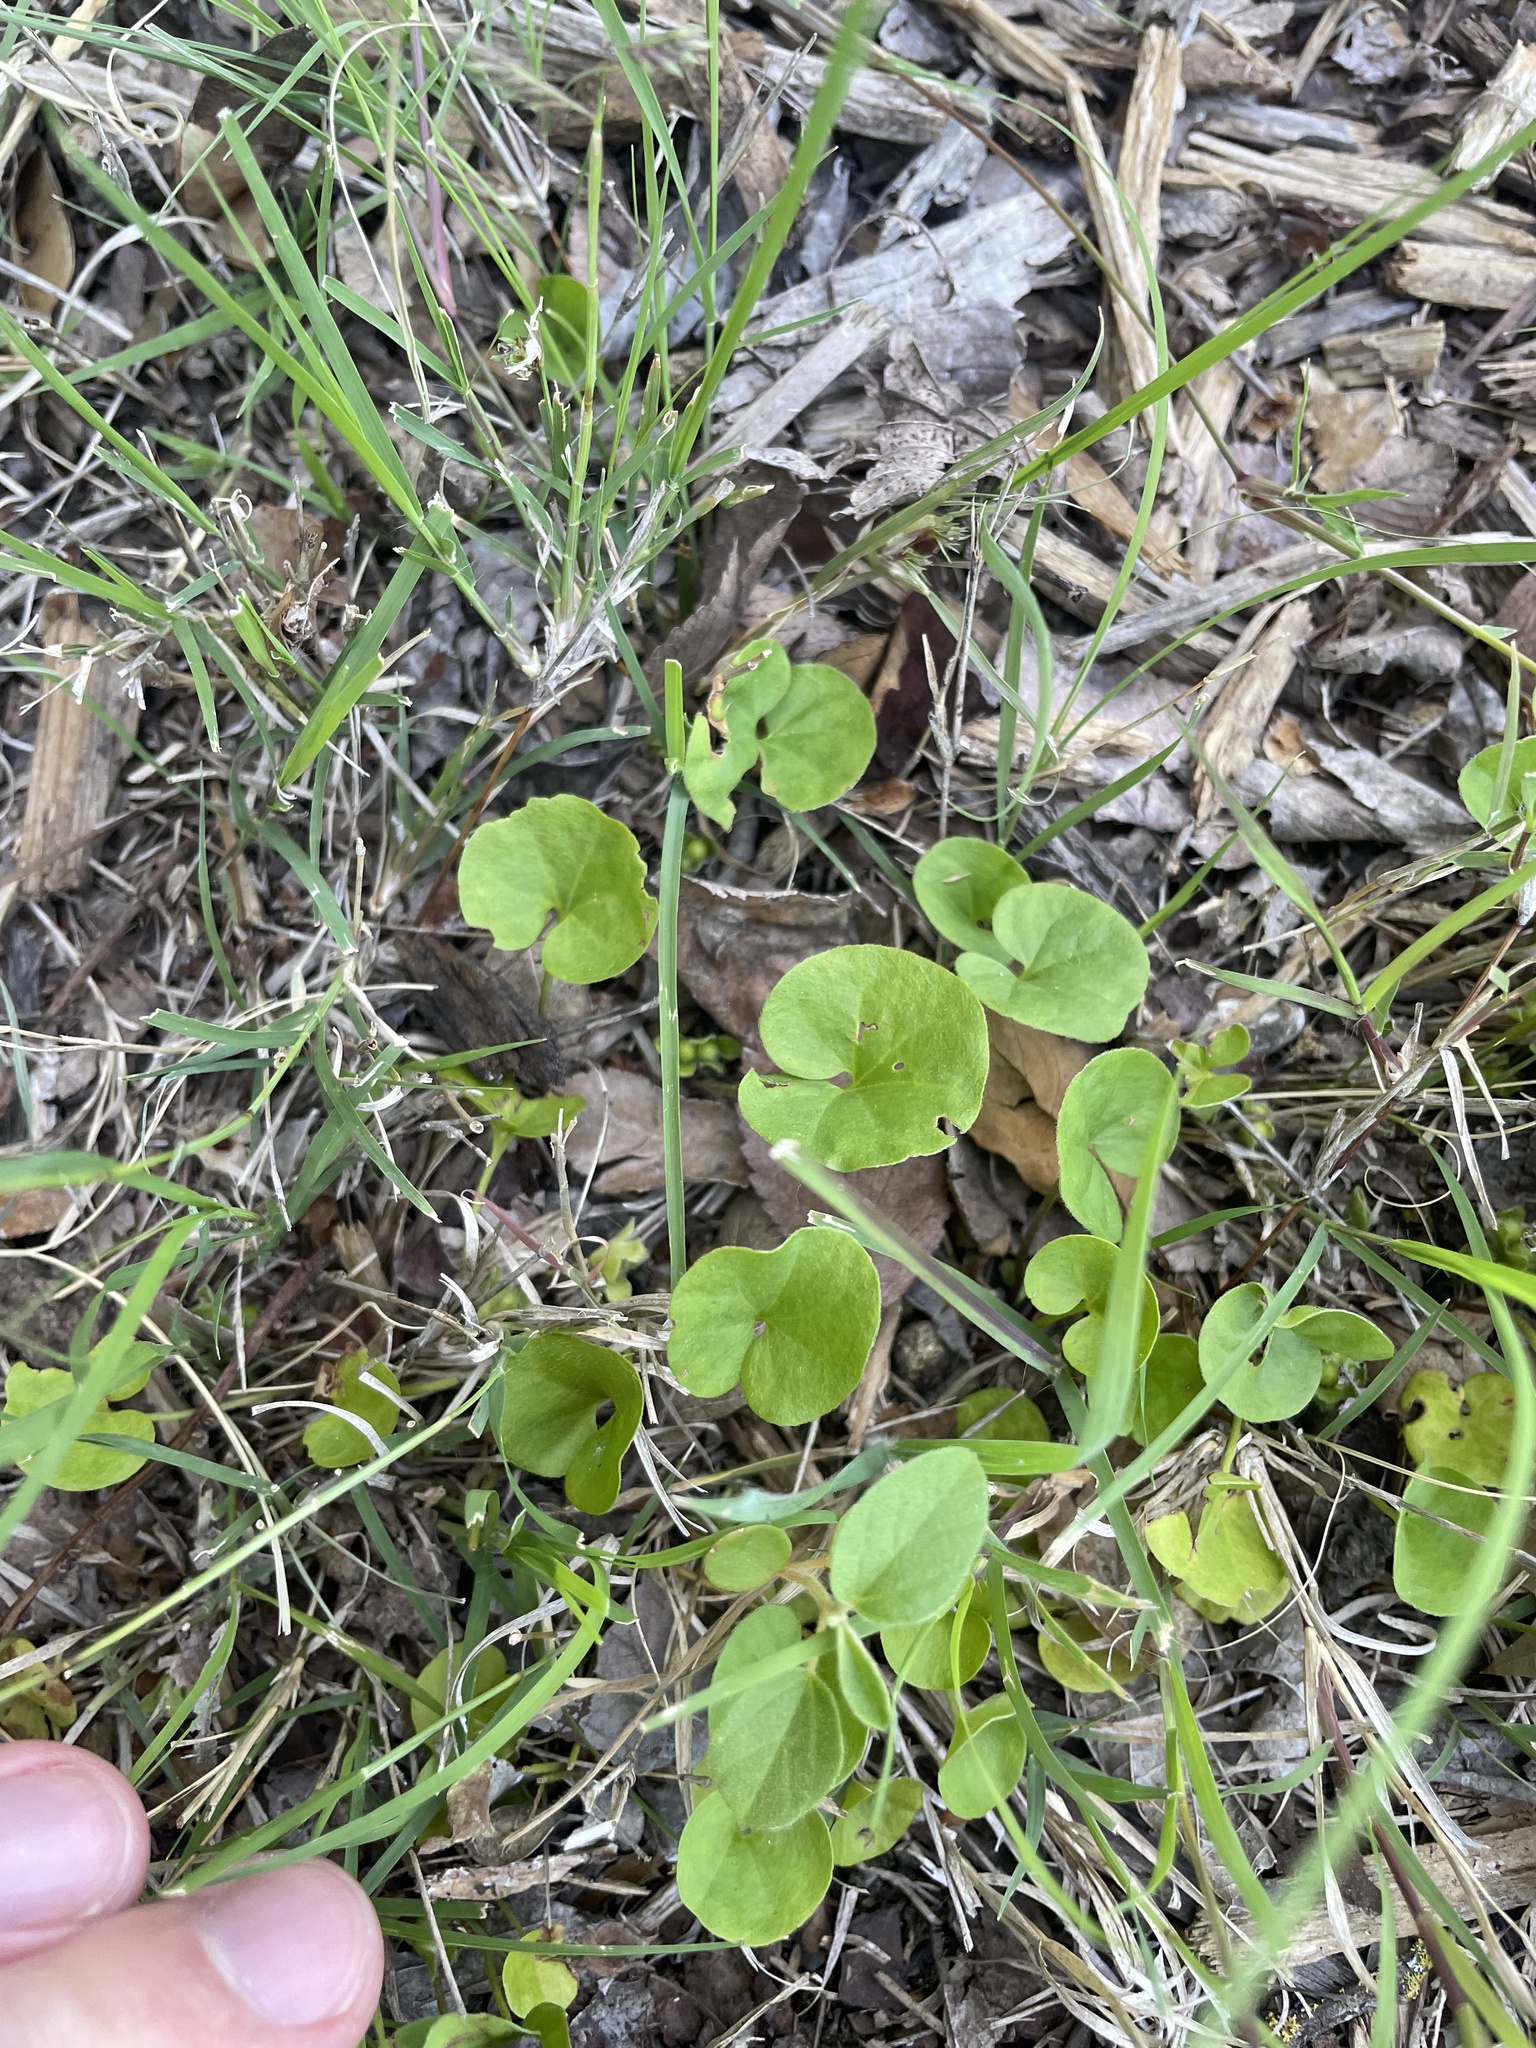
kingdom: Plantae
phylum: Tracheophyta
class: Magnoliopsida
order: Solanales
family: Convolvulaceae
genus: Dichondra
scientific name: Dichondra carolinensis
